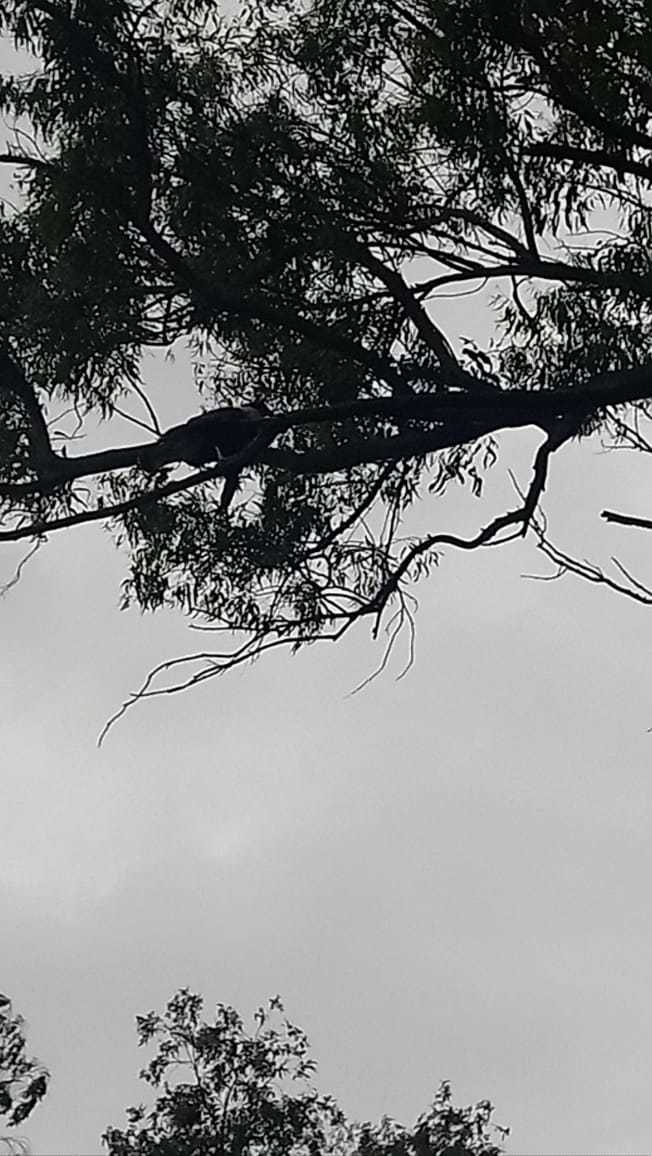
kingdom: Animalia
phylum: Chordata
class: Aves
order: Falconiformes
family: Falconidae
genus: Caracara
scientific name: Caracara plancus
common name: Southern caracara
